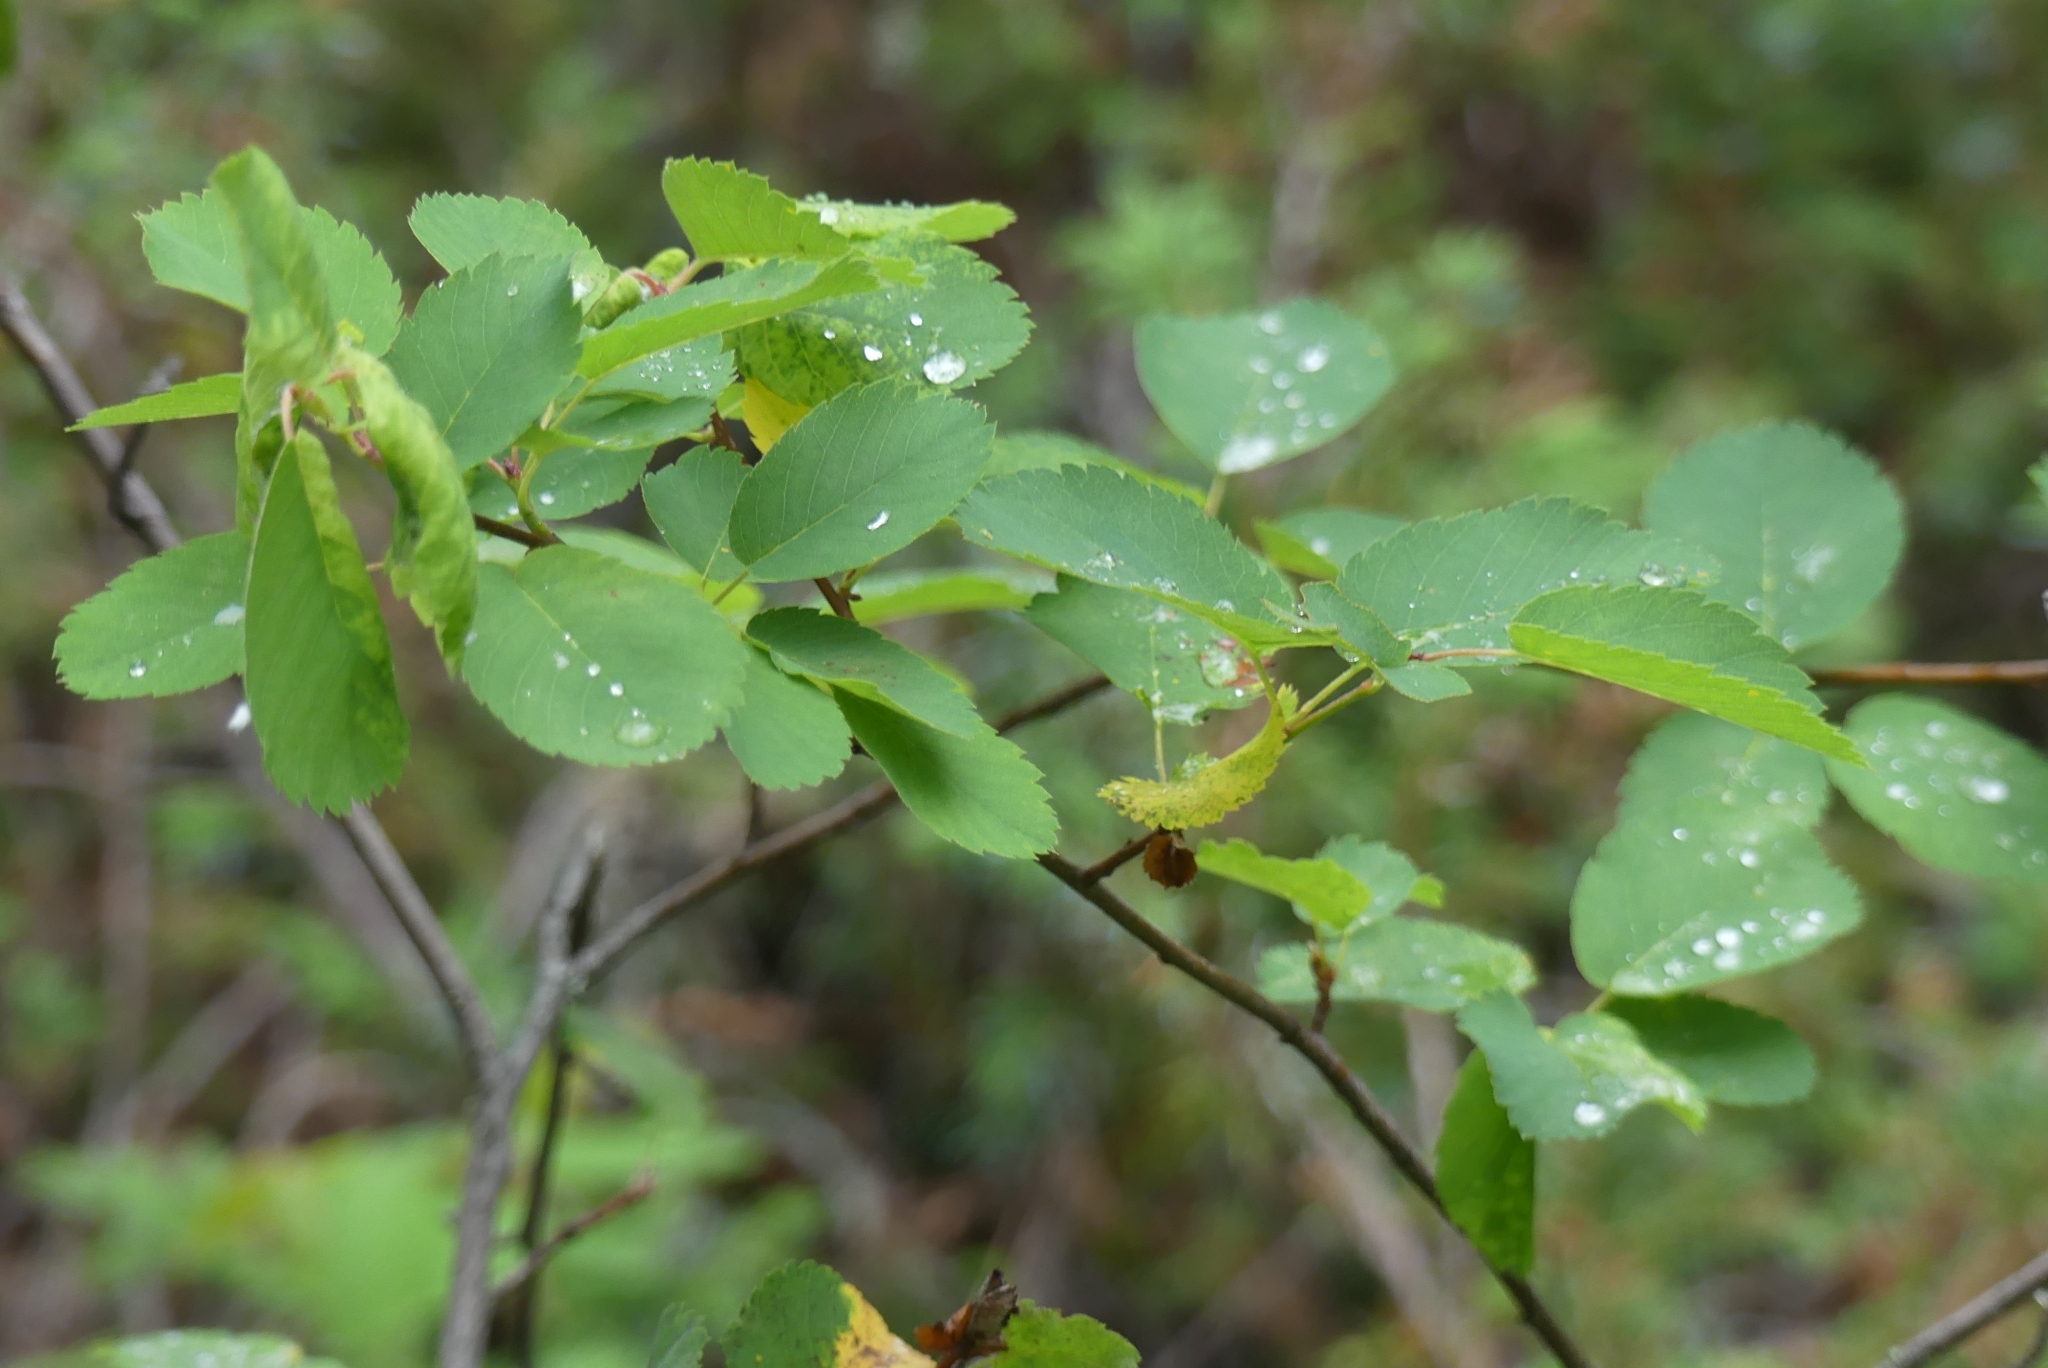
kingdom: Plantae
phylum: Tracheophyta
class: Magnoliopsida
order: Rosales
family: Rosaceae
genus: Amelanchier
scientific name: Amelanchier alnifolia
